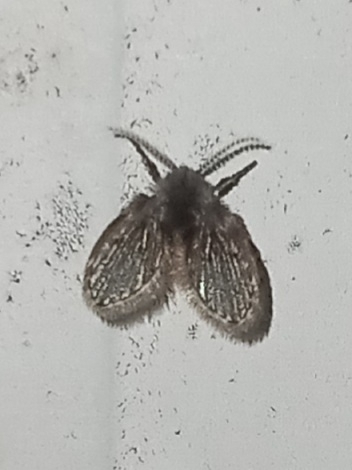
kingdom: Animalia
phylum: Arthropoda
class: Insecta
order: Diptera
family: Psychodidae
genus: Clogmia
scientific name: Clogmia albipunctatus
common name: White-spotted moth fly
